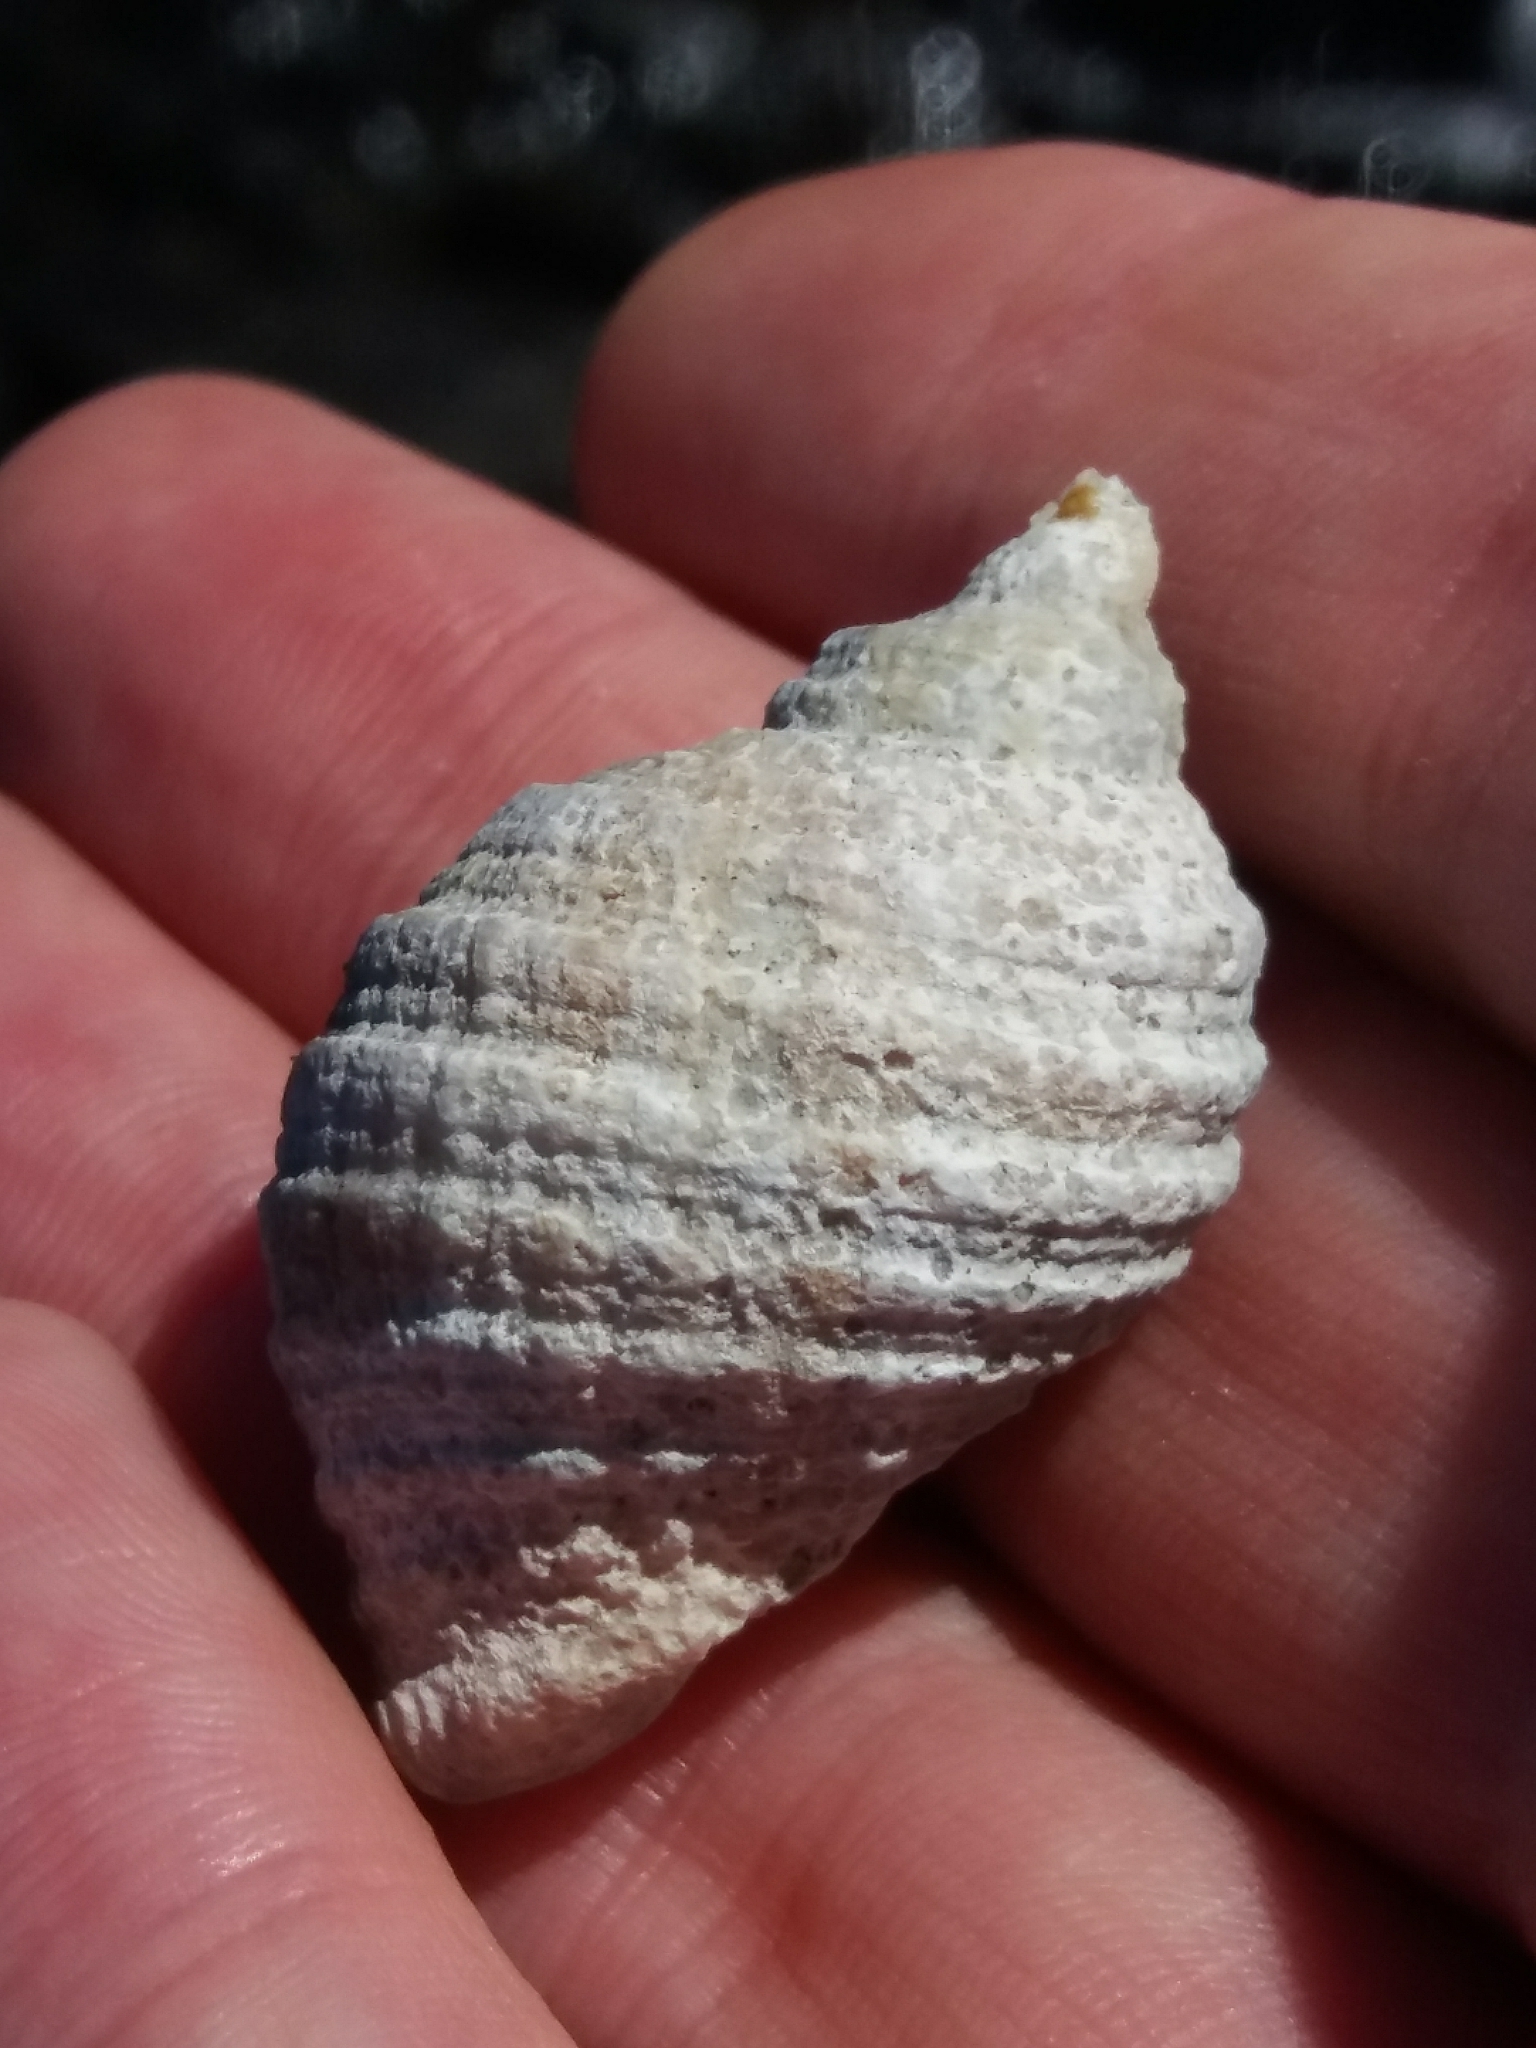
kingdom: Animalia
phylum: Mollusca
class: Gastropoda
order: Neogastropoda
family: Muricidae
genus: Dicathais
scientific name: Dicathais orbita
